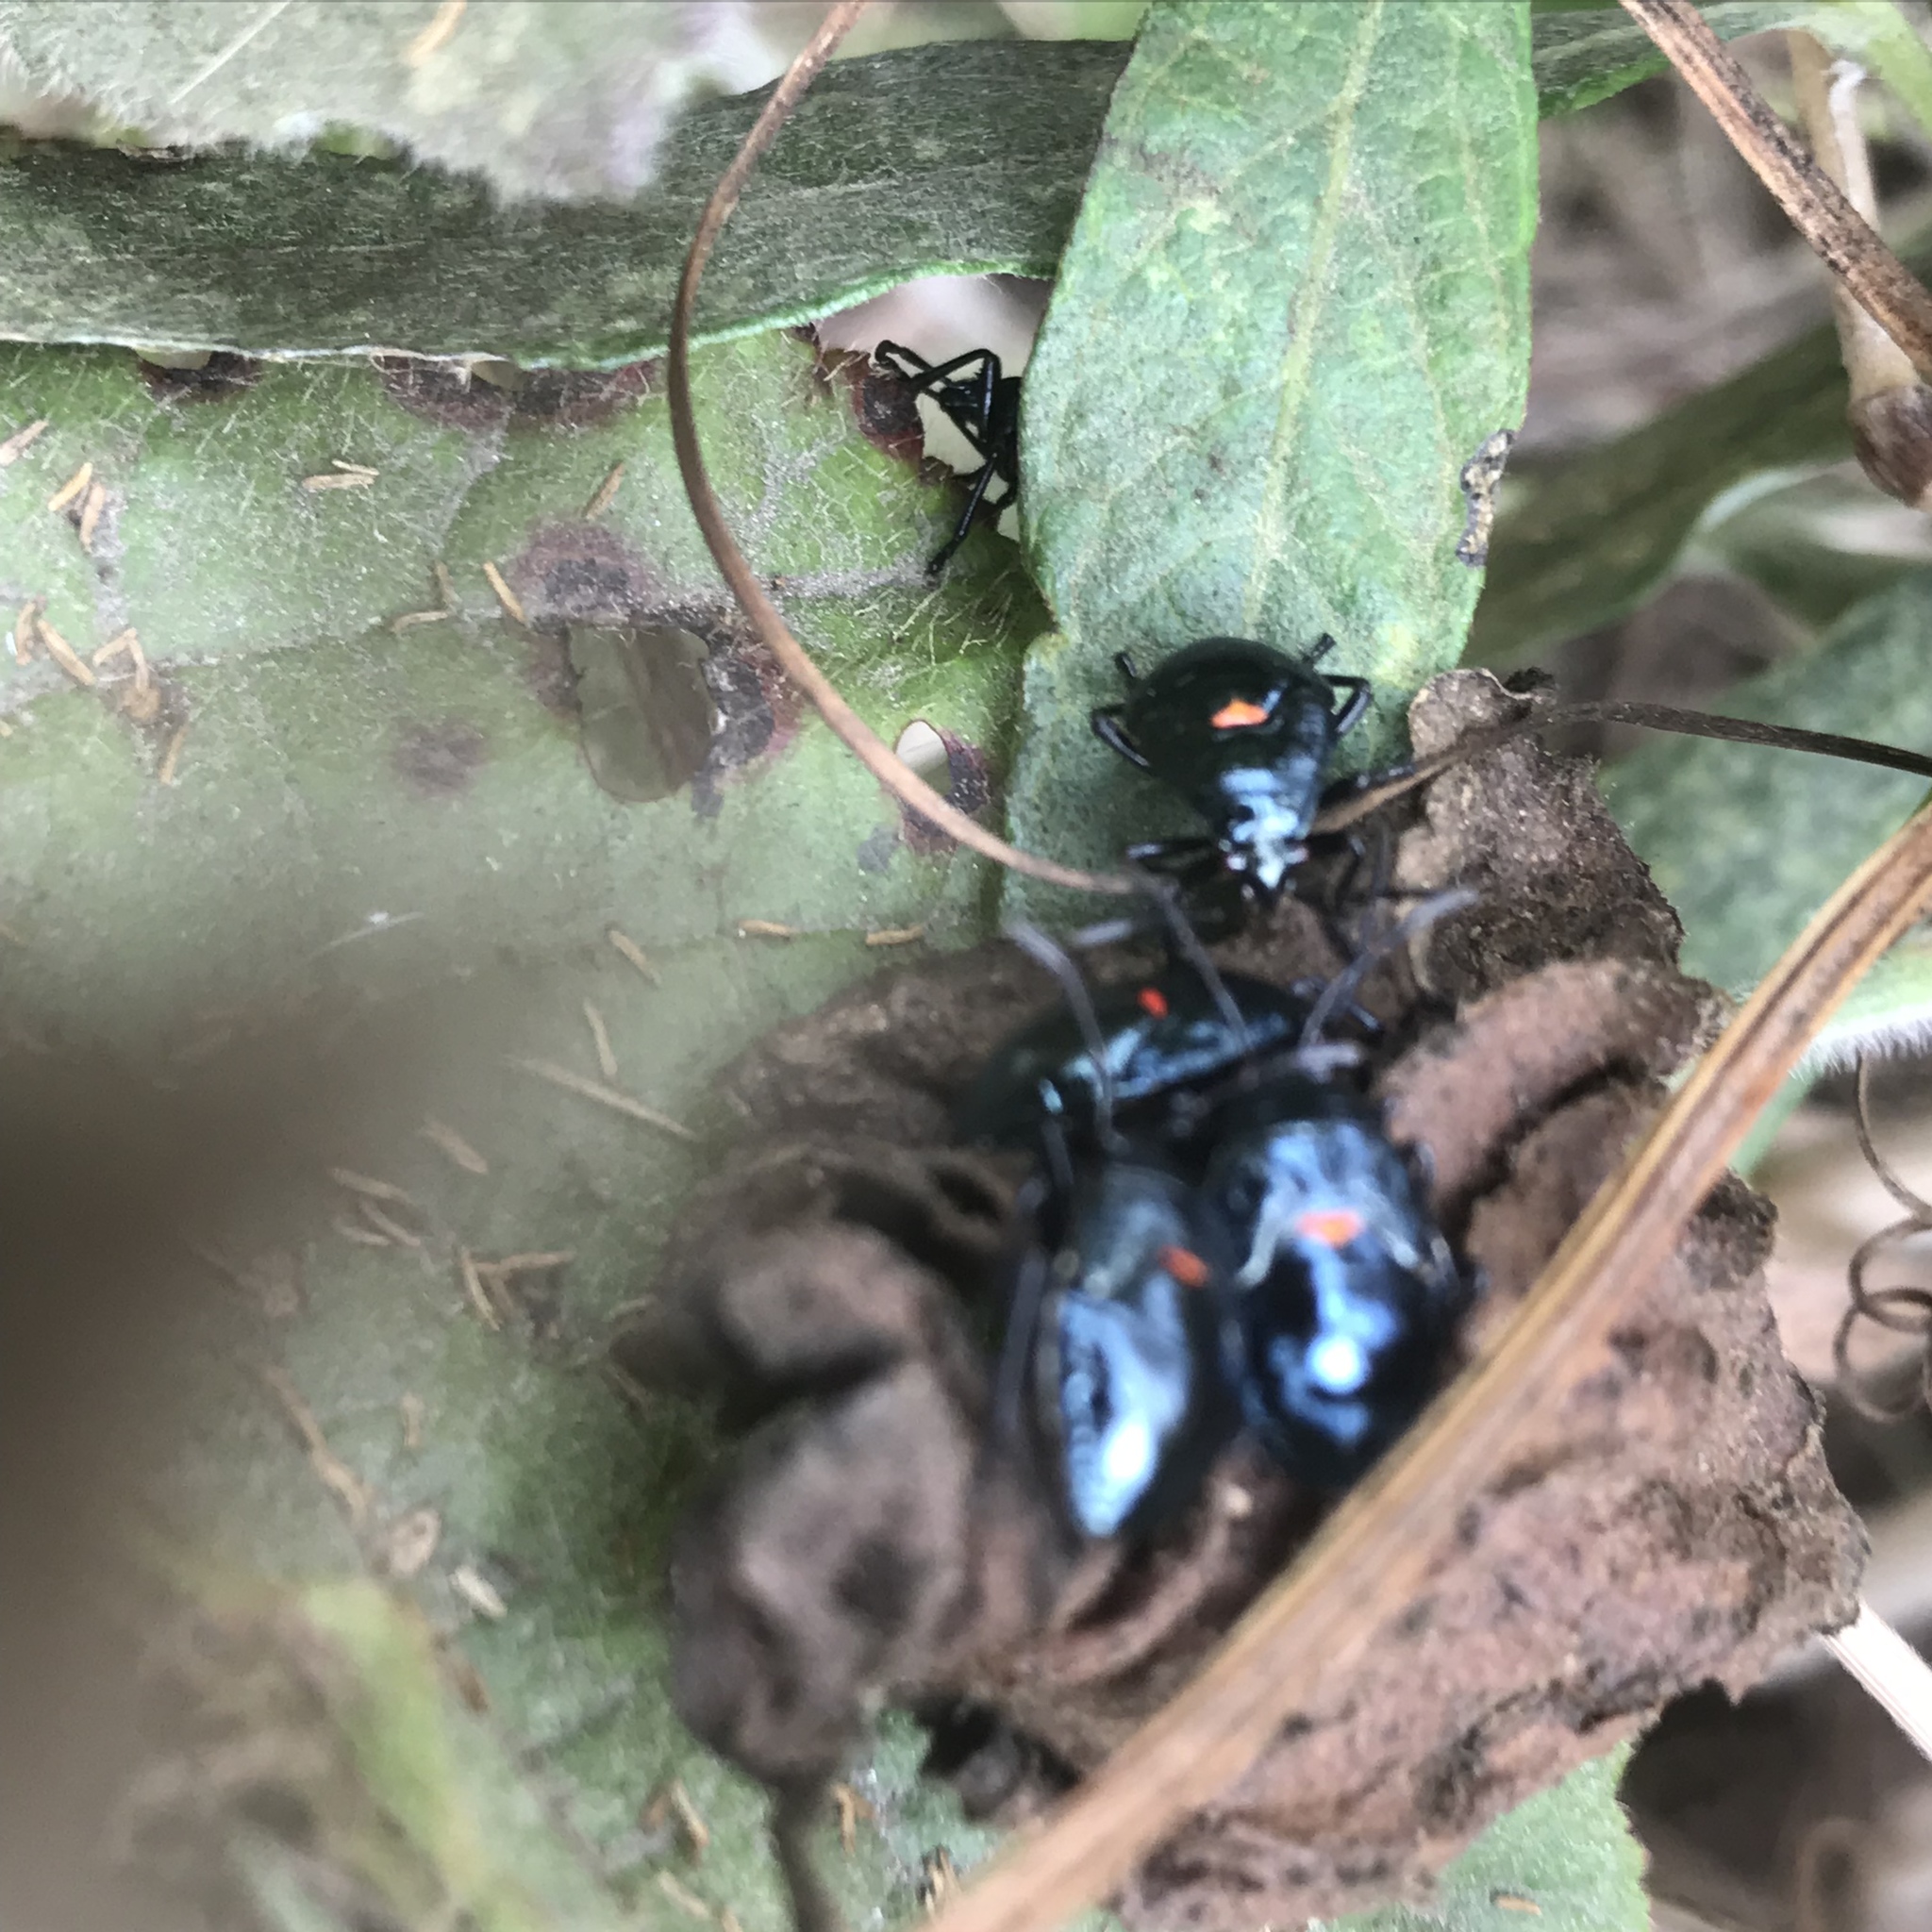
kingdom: Animalia
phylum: Arthropoda
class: Insecta
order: Hemiptera
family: Largidae
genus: Largus
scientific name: Largus californicus
